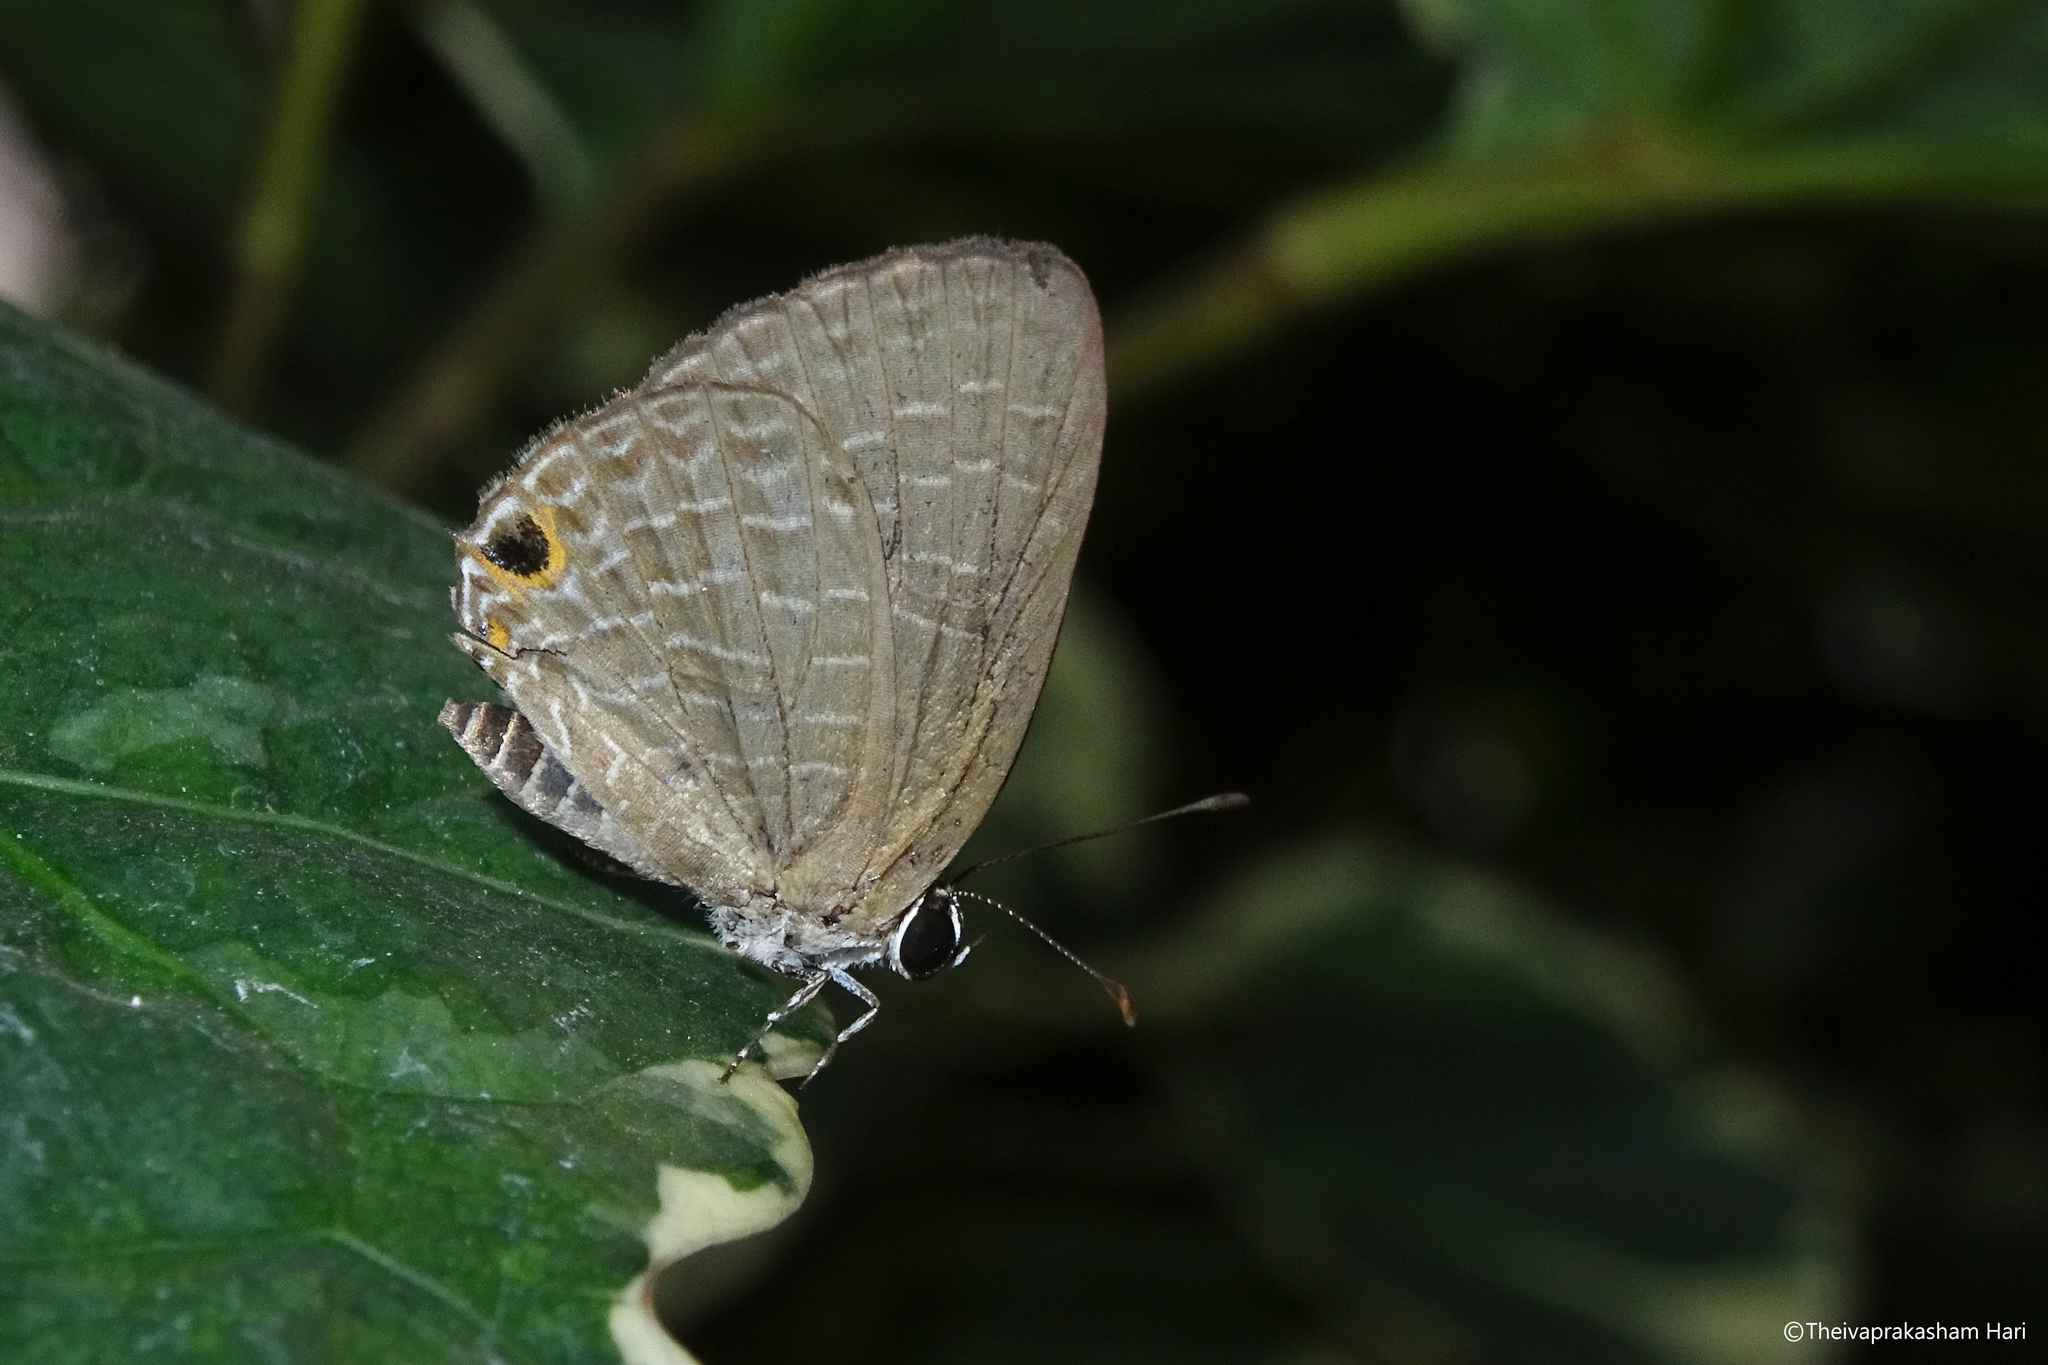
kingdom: Animalia
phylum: Arthropoda
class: Insecta
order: Lepidoptera
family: Lycaenidae
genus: Jamides
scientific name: Jamides bochus
